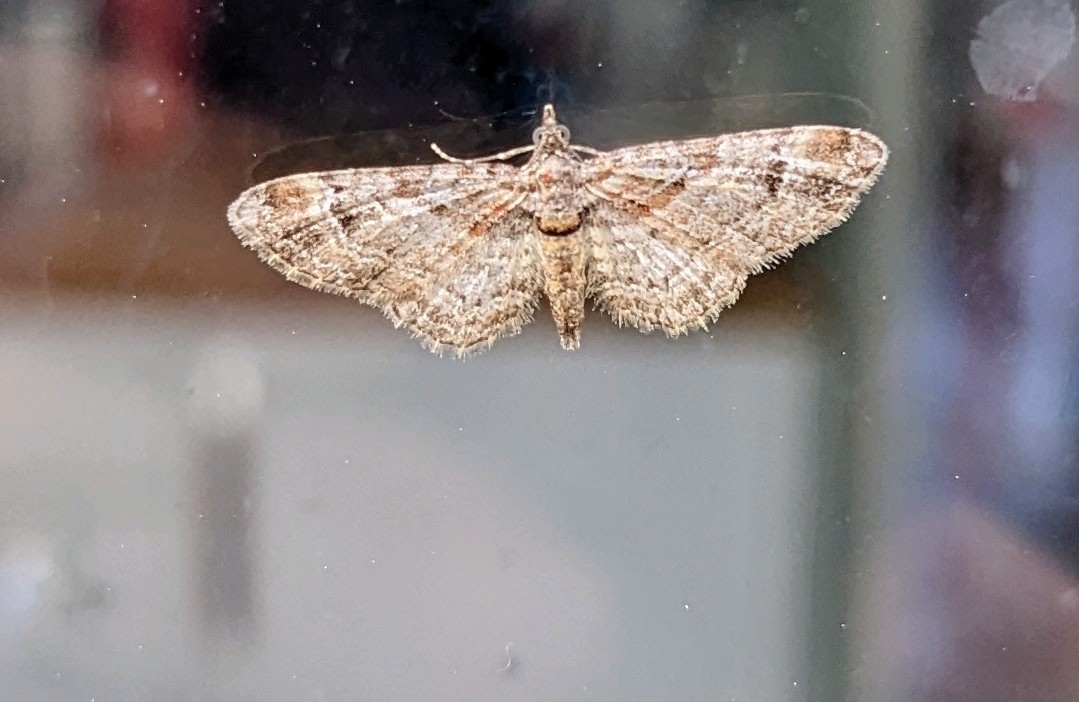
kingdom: Animalia
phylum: Arthropoda
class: Insecta
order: Lepidoptera
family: Geometridae
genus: Gymnoscelis
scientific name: Gymnoscelis rufifasciata
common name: Double-striped pug
